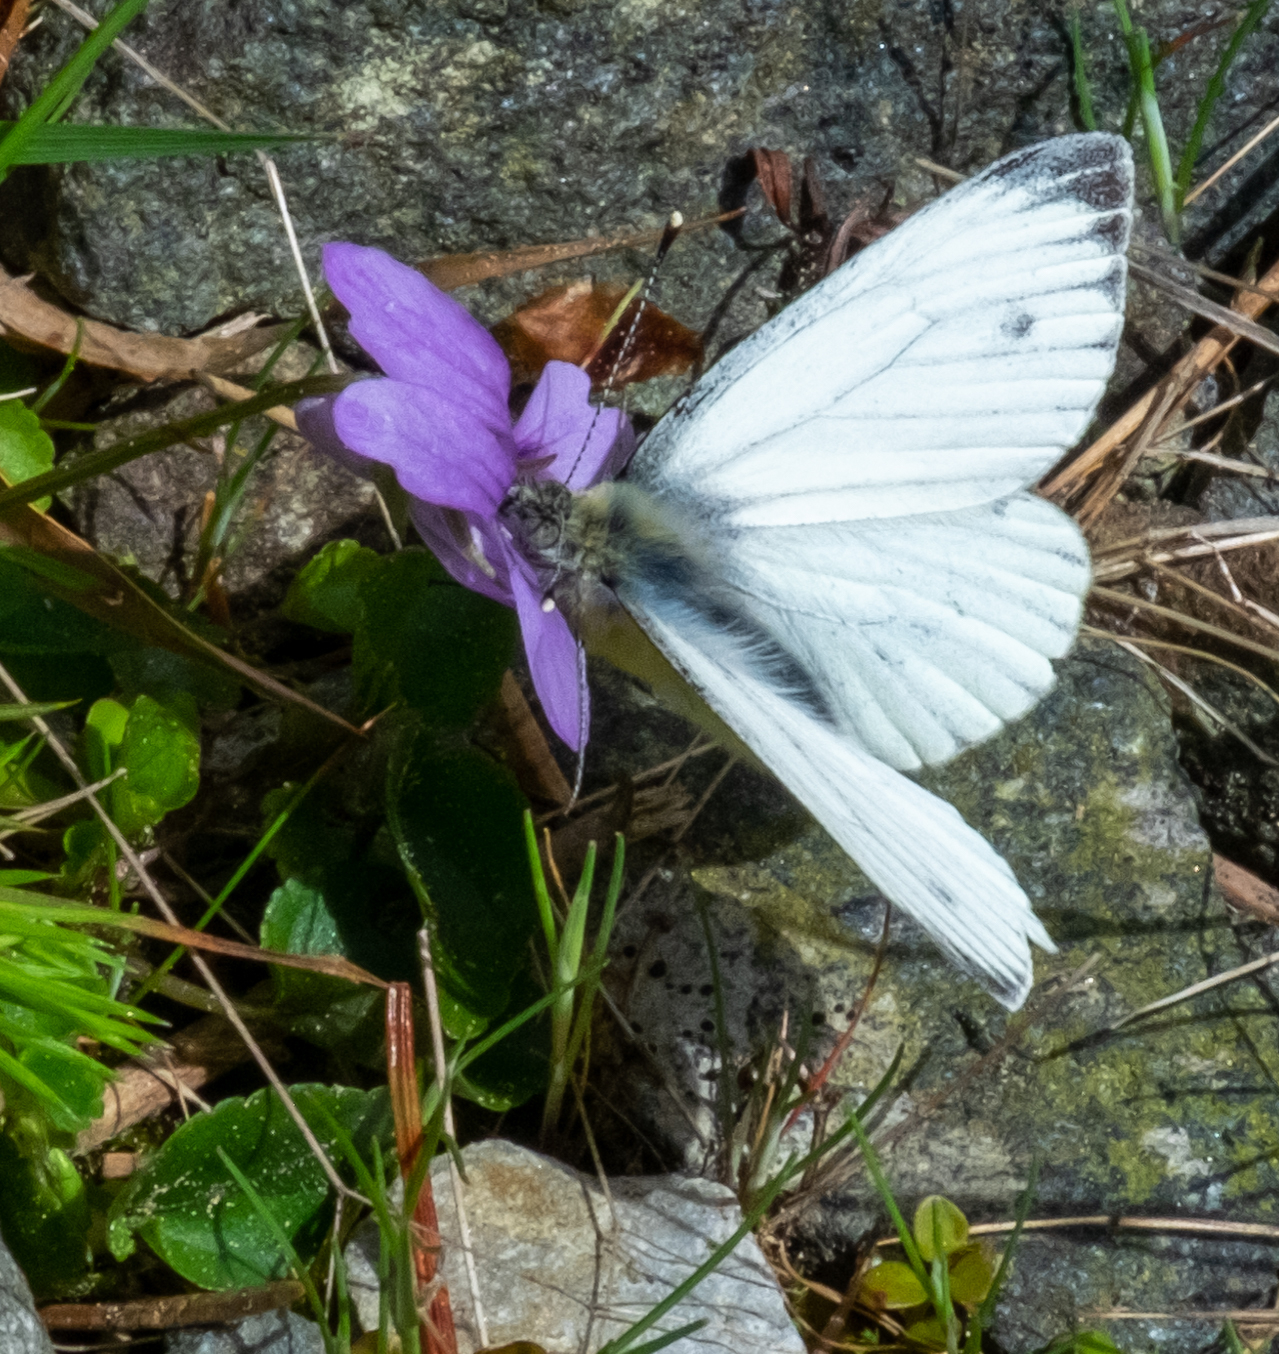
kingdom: Animalia
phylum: Arthropoda
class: Insecta
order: Lepidoptera
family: Pieridae
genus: Pieris
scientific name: Pieris napi
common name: Green-veined white
